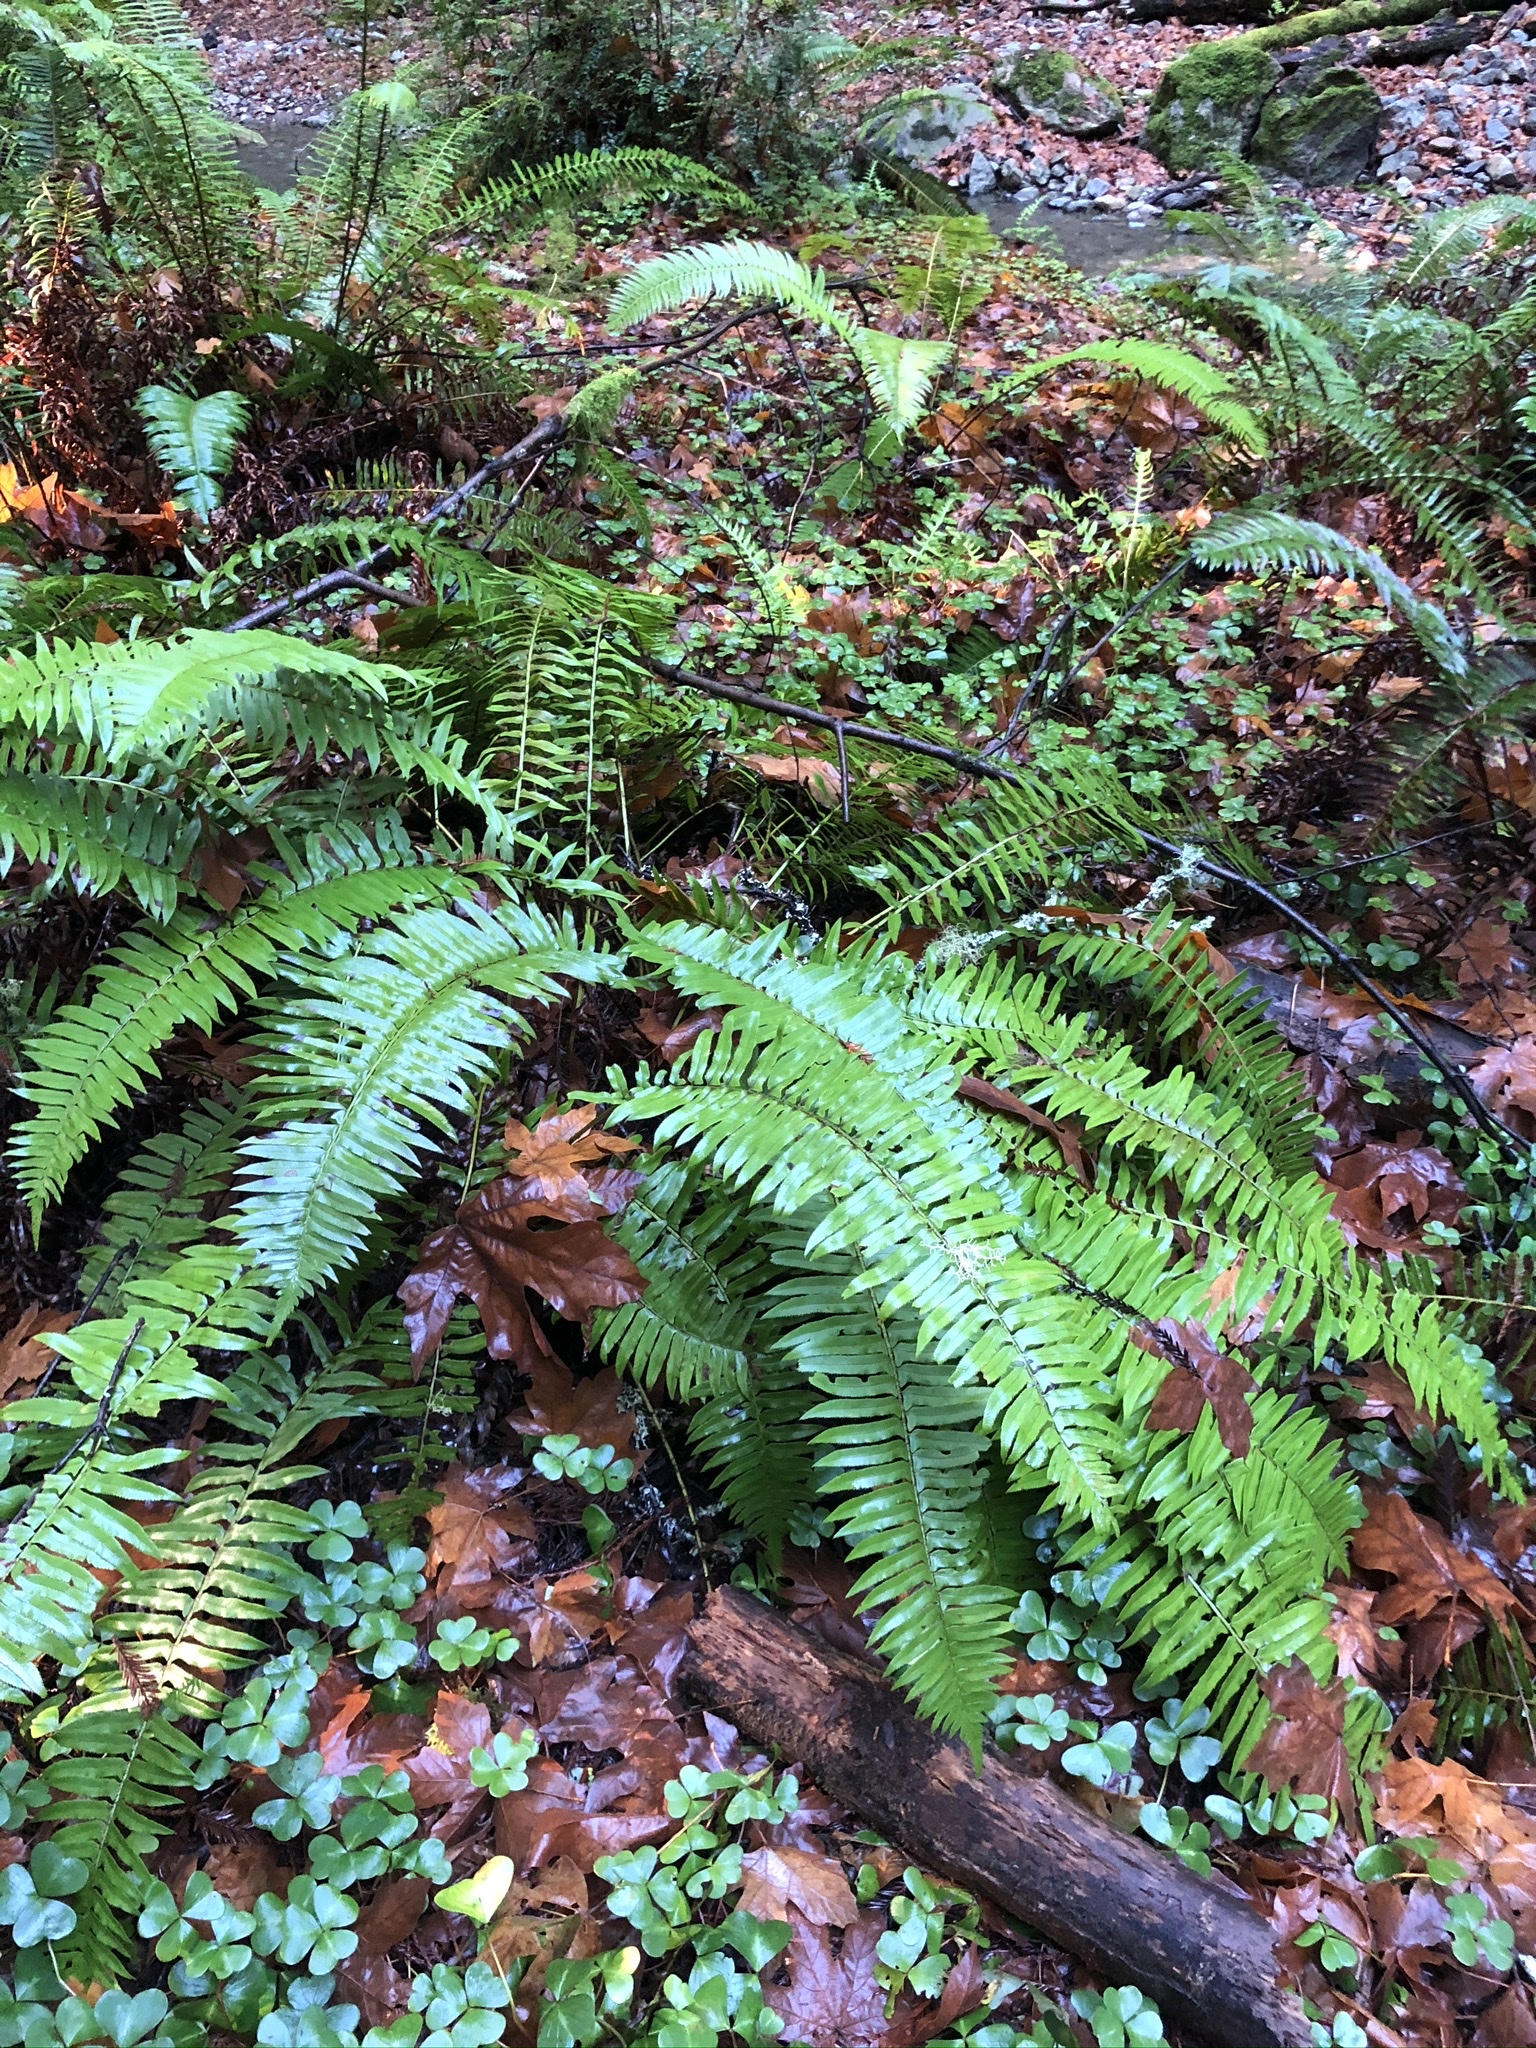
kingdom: Plantae
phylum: Tracheophyta
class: Polypodiopsida
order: Polypodiales
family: Dryopteridaceae
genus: Polystichum
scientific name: Polystichum munitum
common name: Western sword-fern
